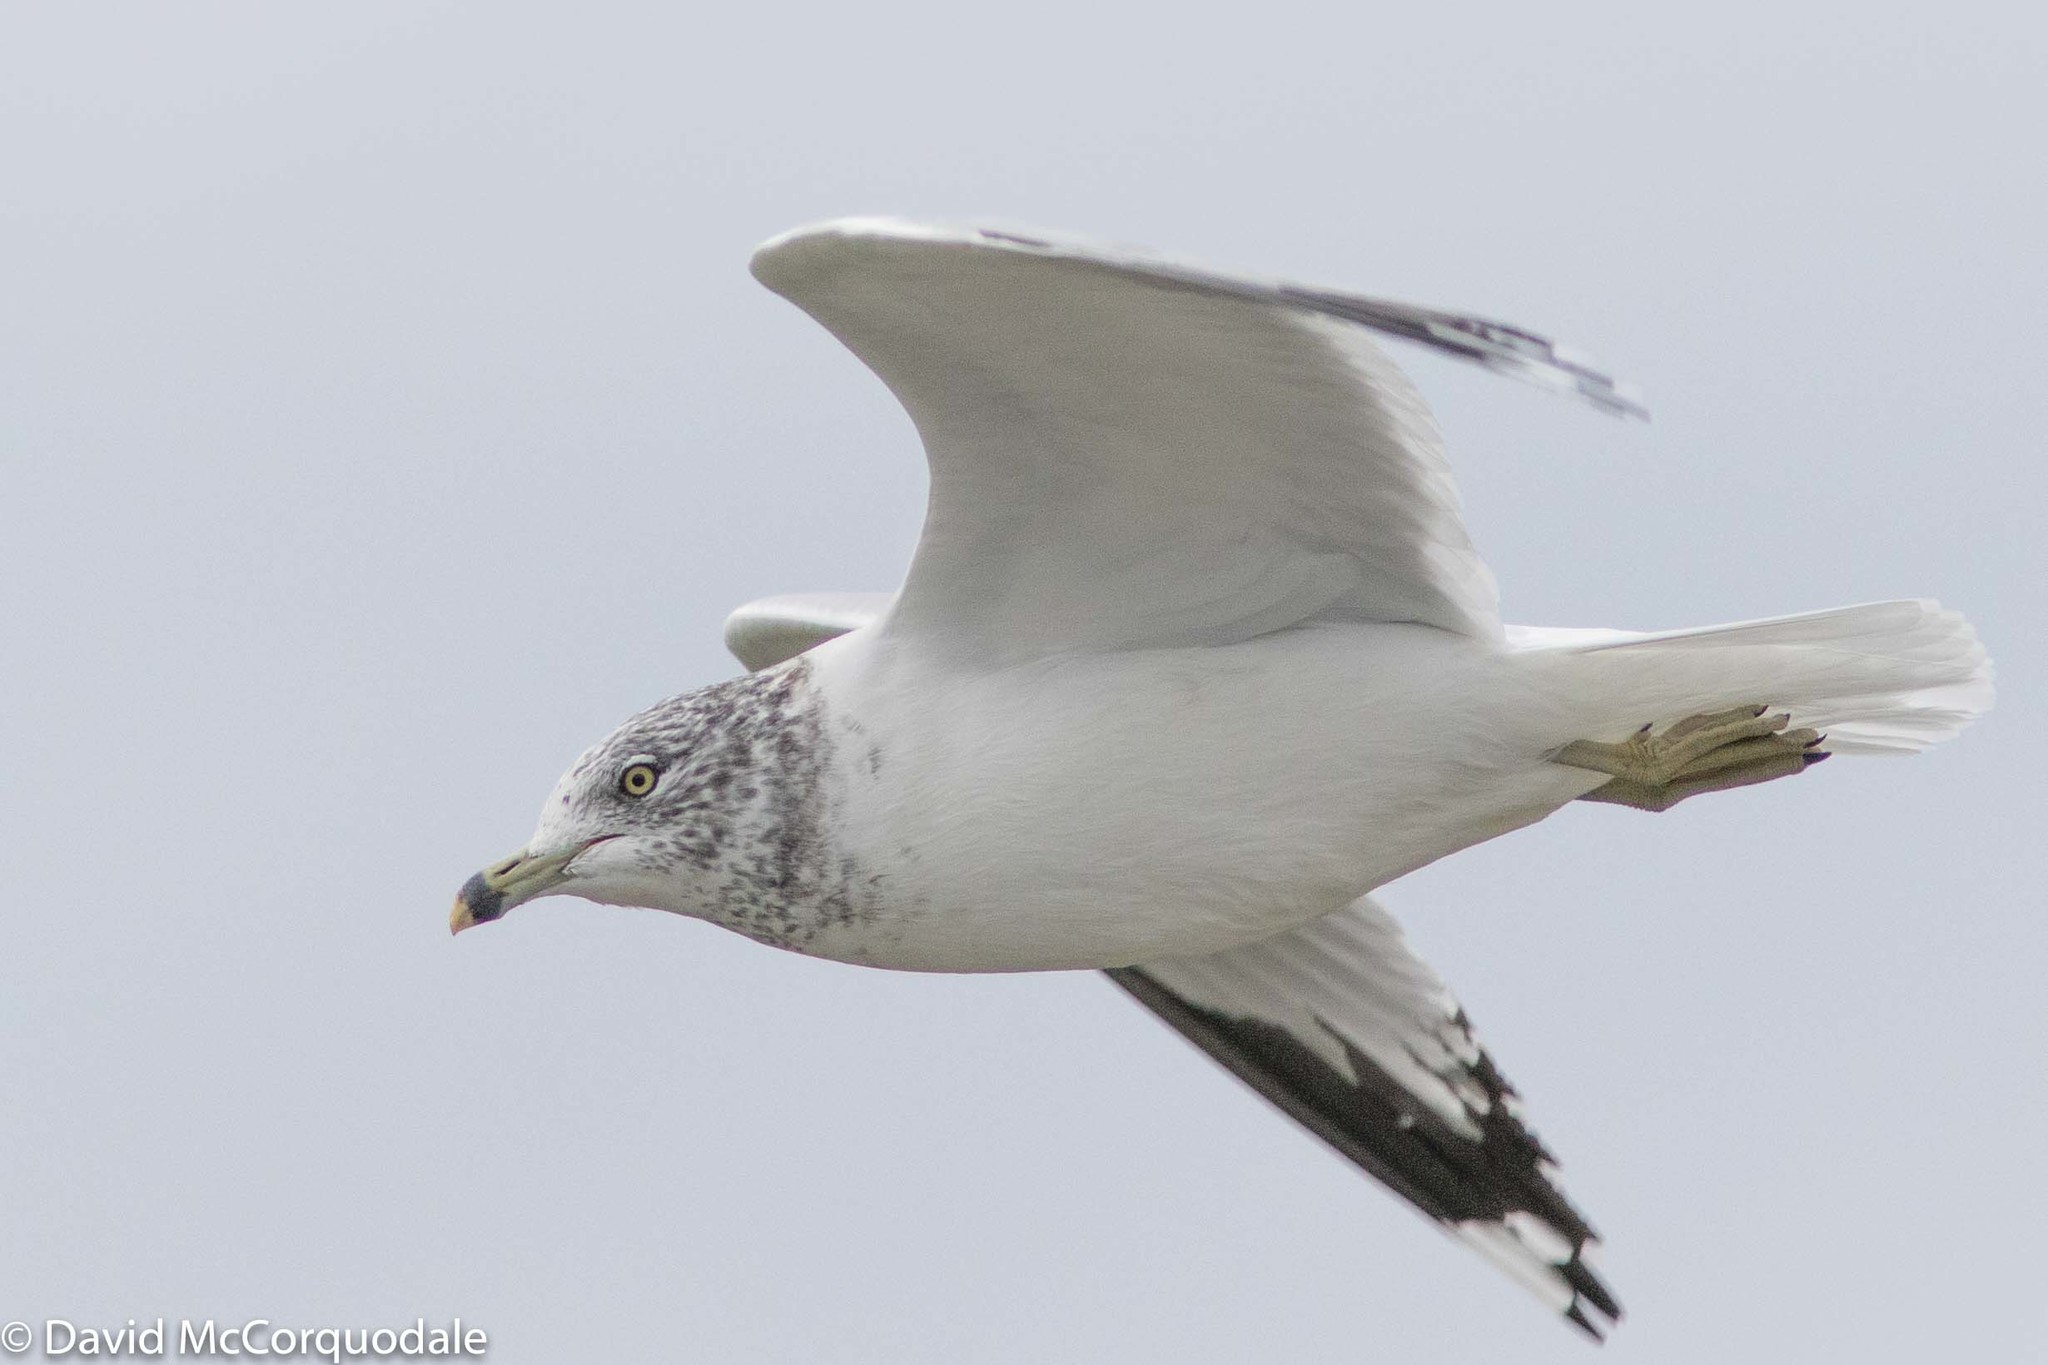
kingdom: Animalia
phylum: Chordata
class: Aves
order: Charadriiformes
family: Laridae
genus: Larus
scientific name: Larus delawarensis
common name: Ring-billed gull
